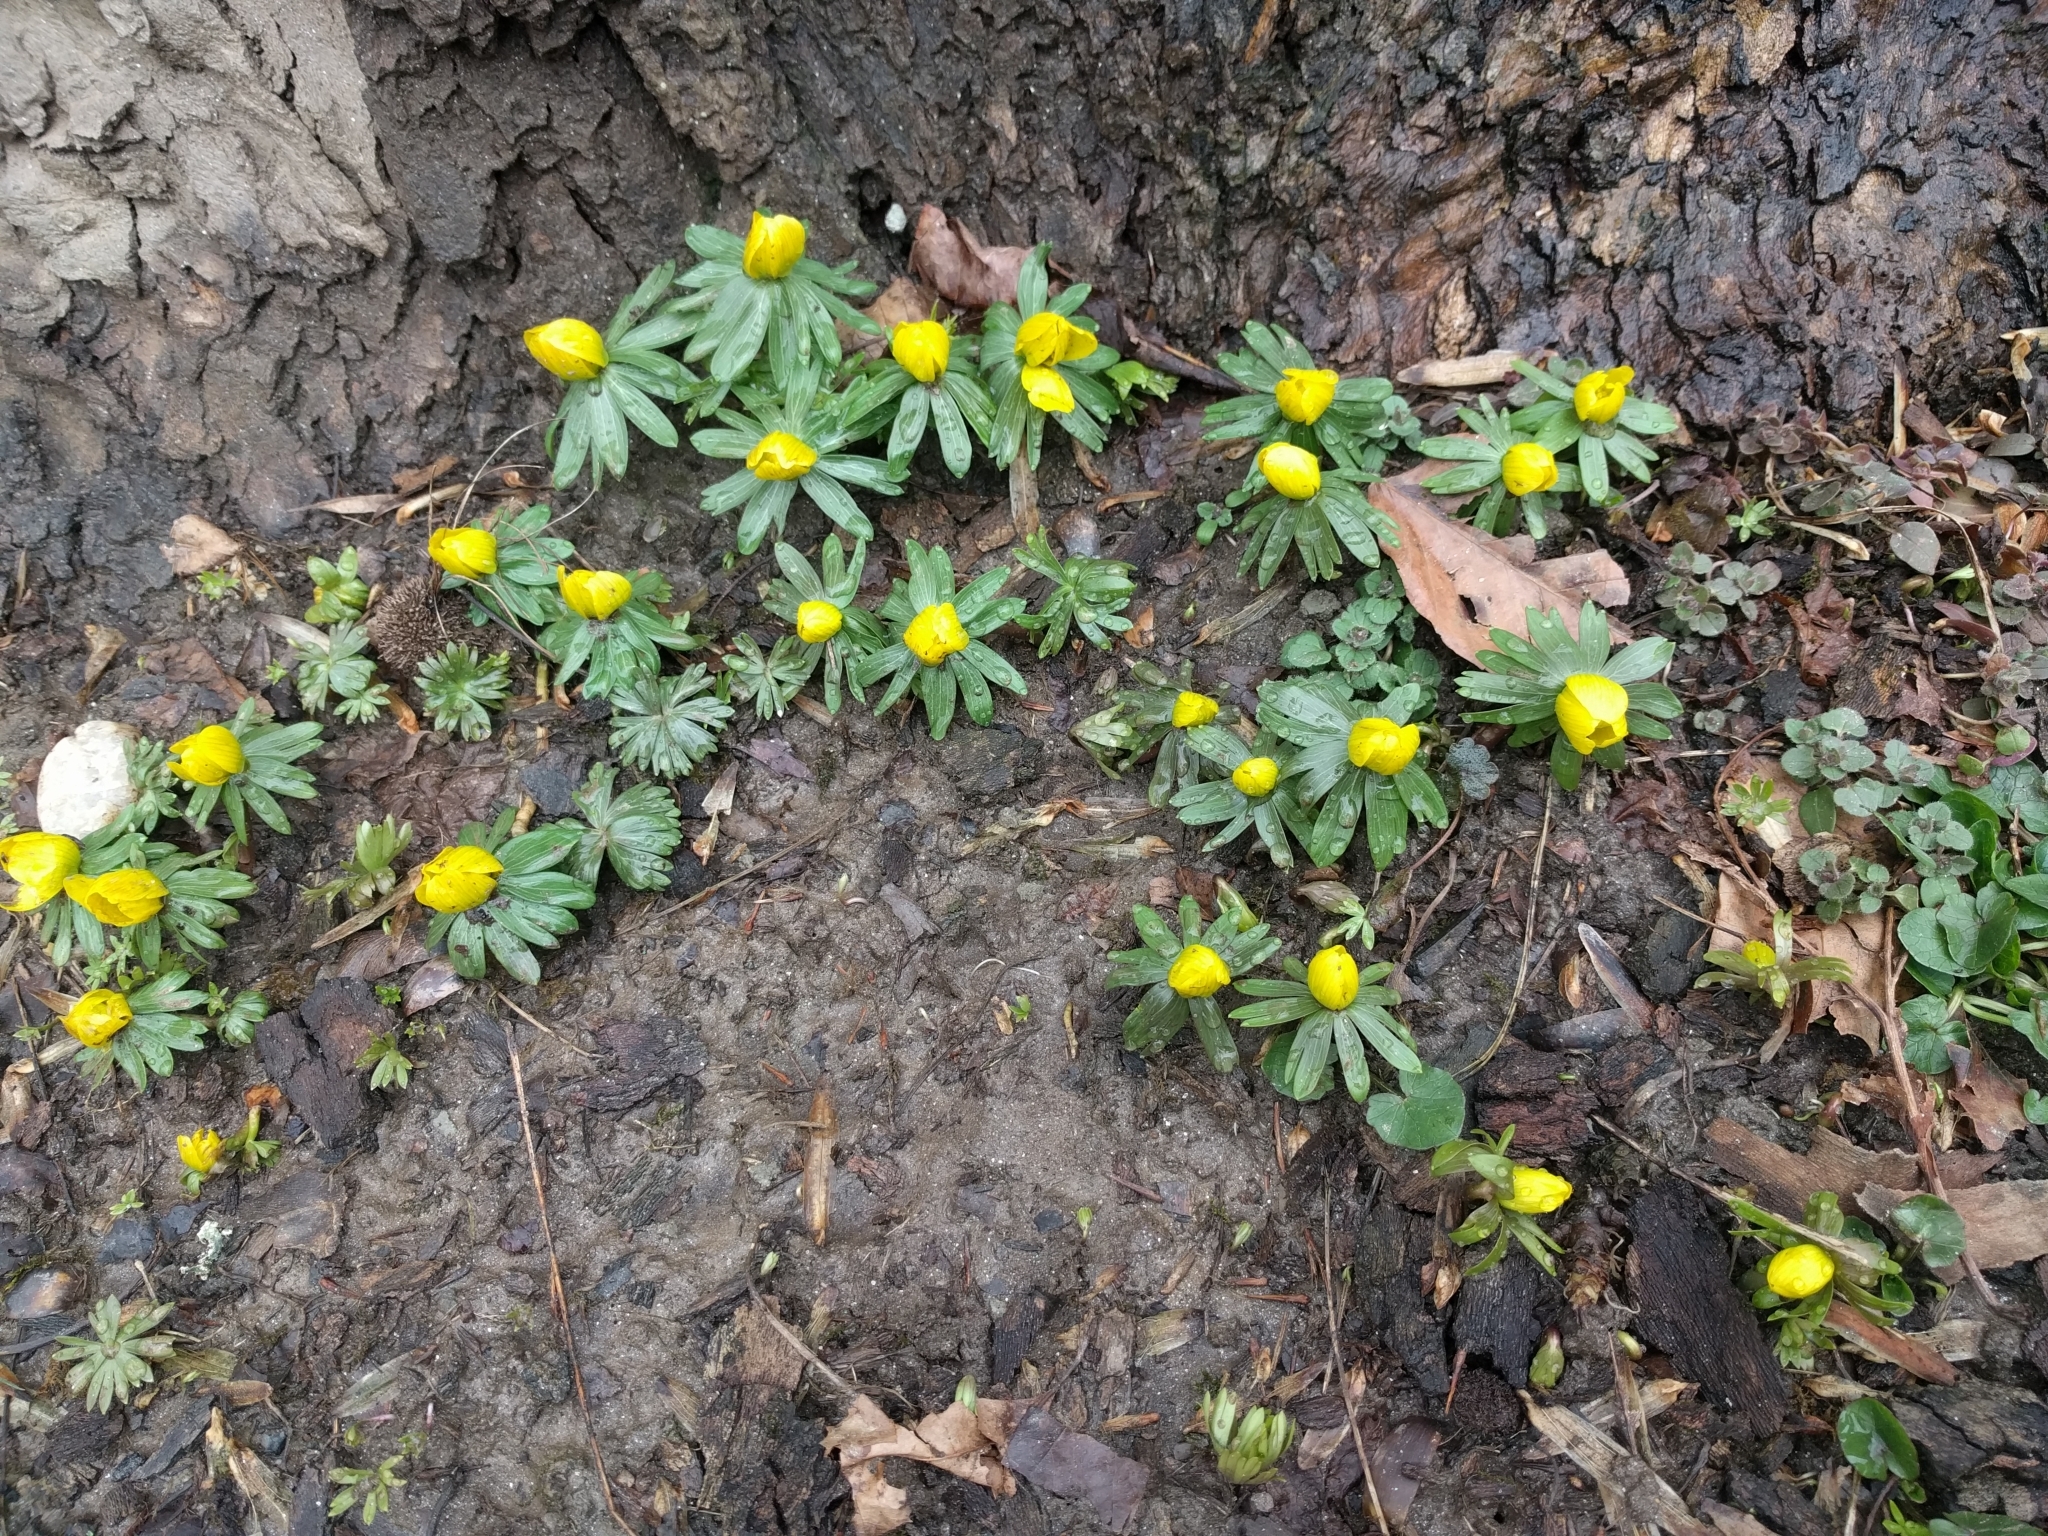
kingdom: Plantae
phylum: Tracheophyta
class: Magnoliopsida
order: Ranunculales
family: Ranunculaceae
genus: Eranthis
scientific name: Eranthis hyemalis
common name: Winter aconite
